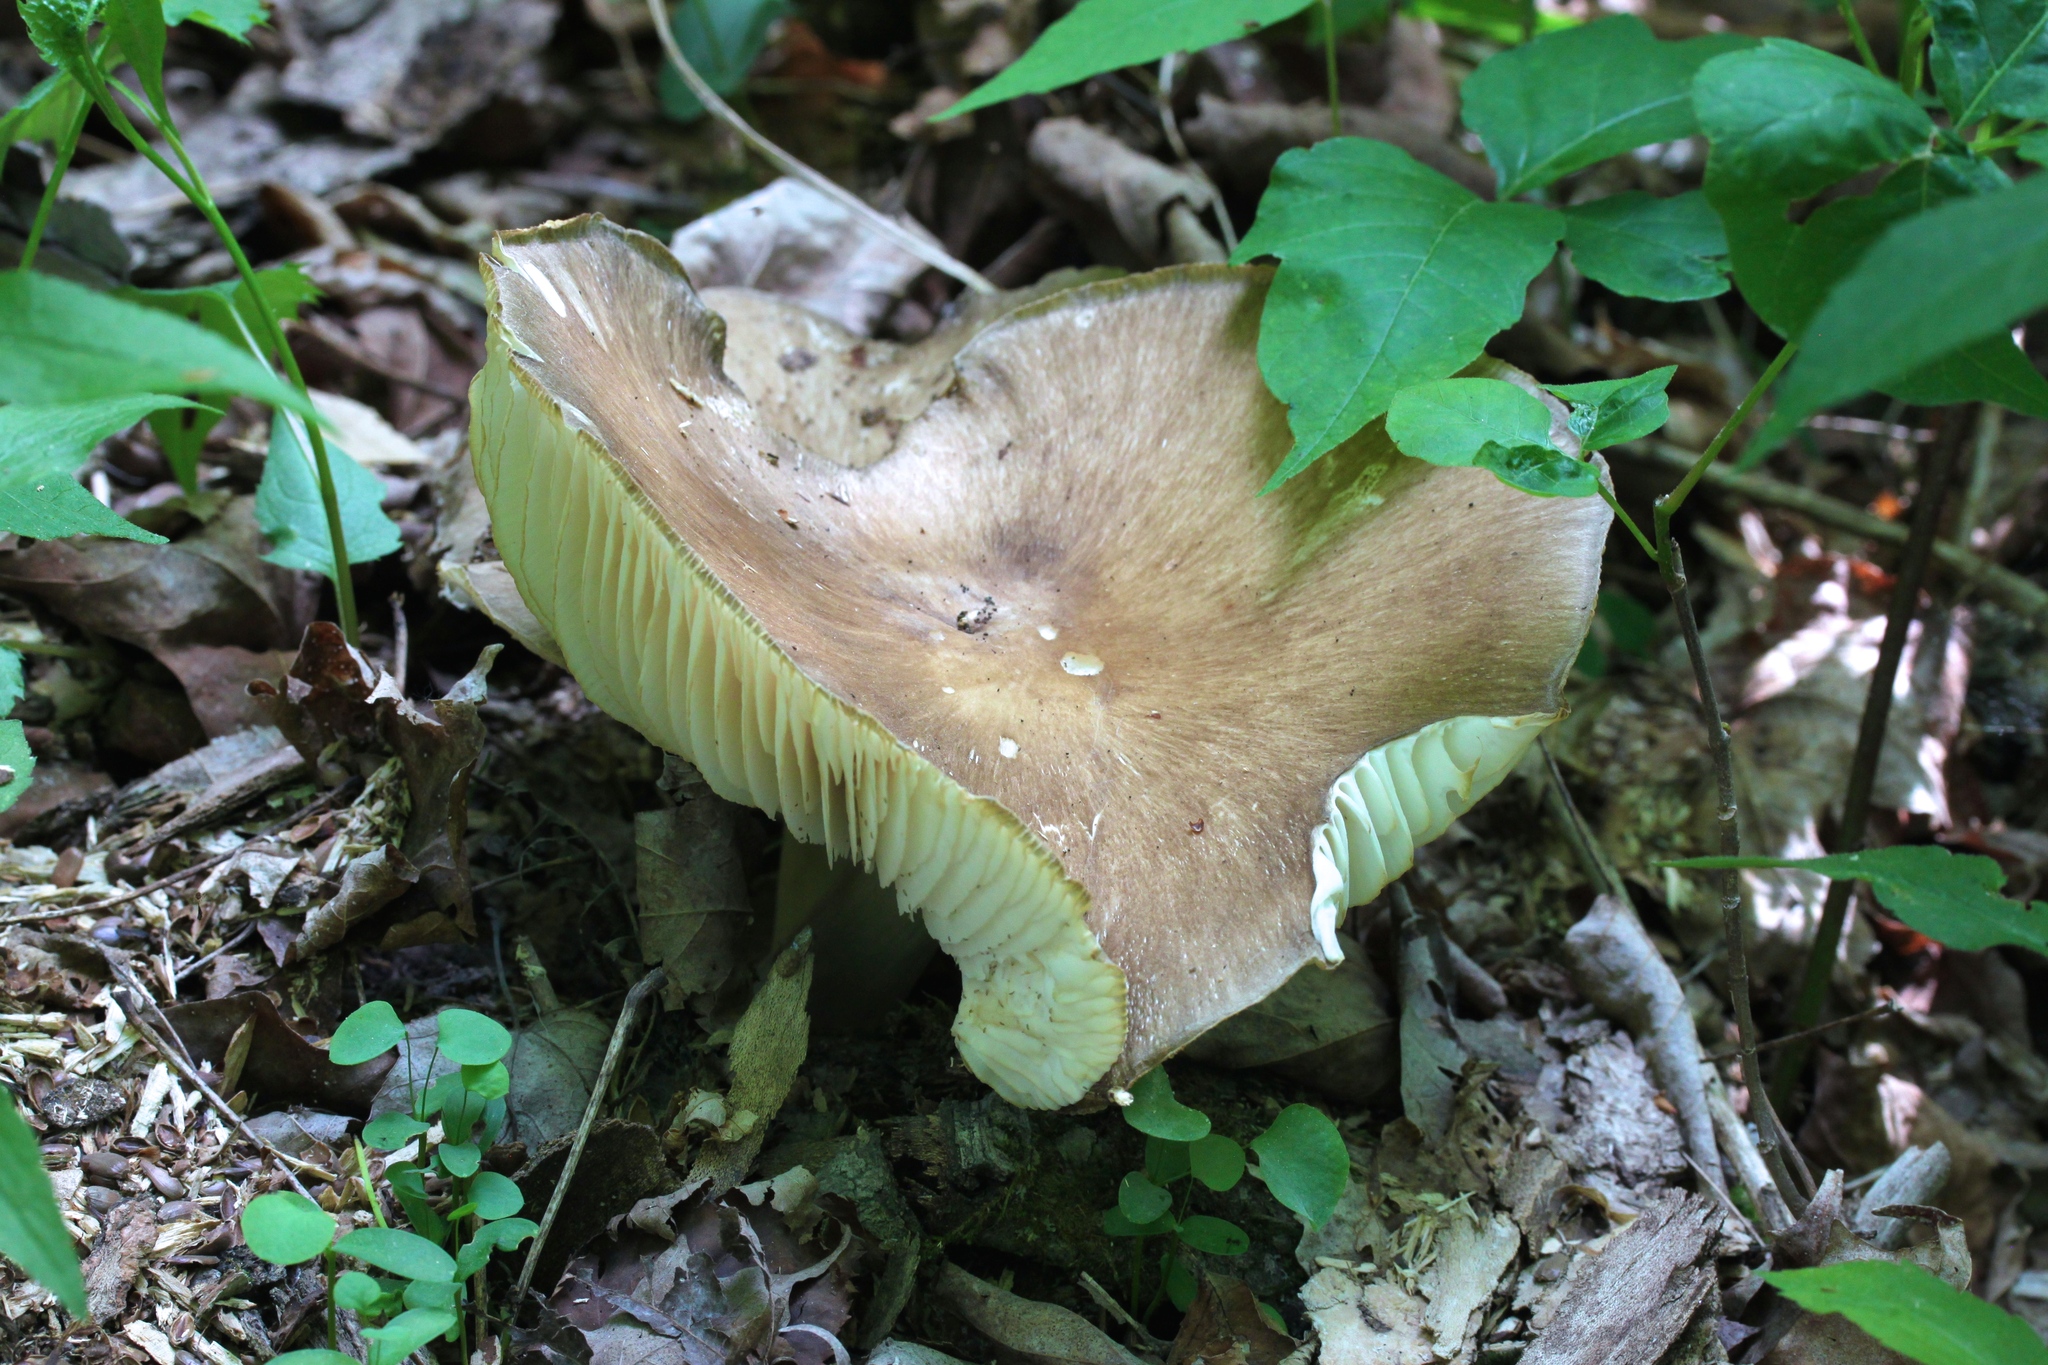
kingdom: Fungi
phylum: Basidiomycota
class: Agaricomycetes
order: Agaricales
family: Tricholomataceae
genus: Megacollybia
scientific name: Megacollybia rodmanii
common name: Eastern american platterful mushroom
